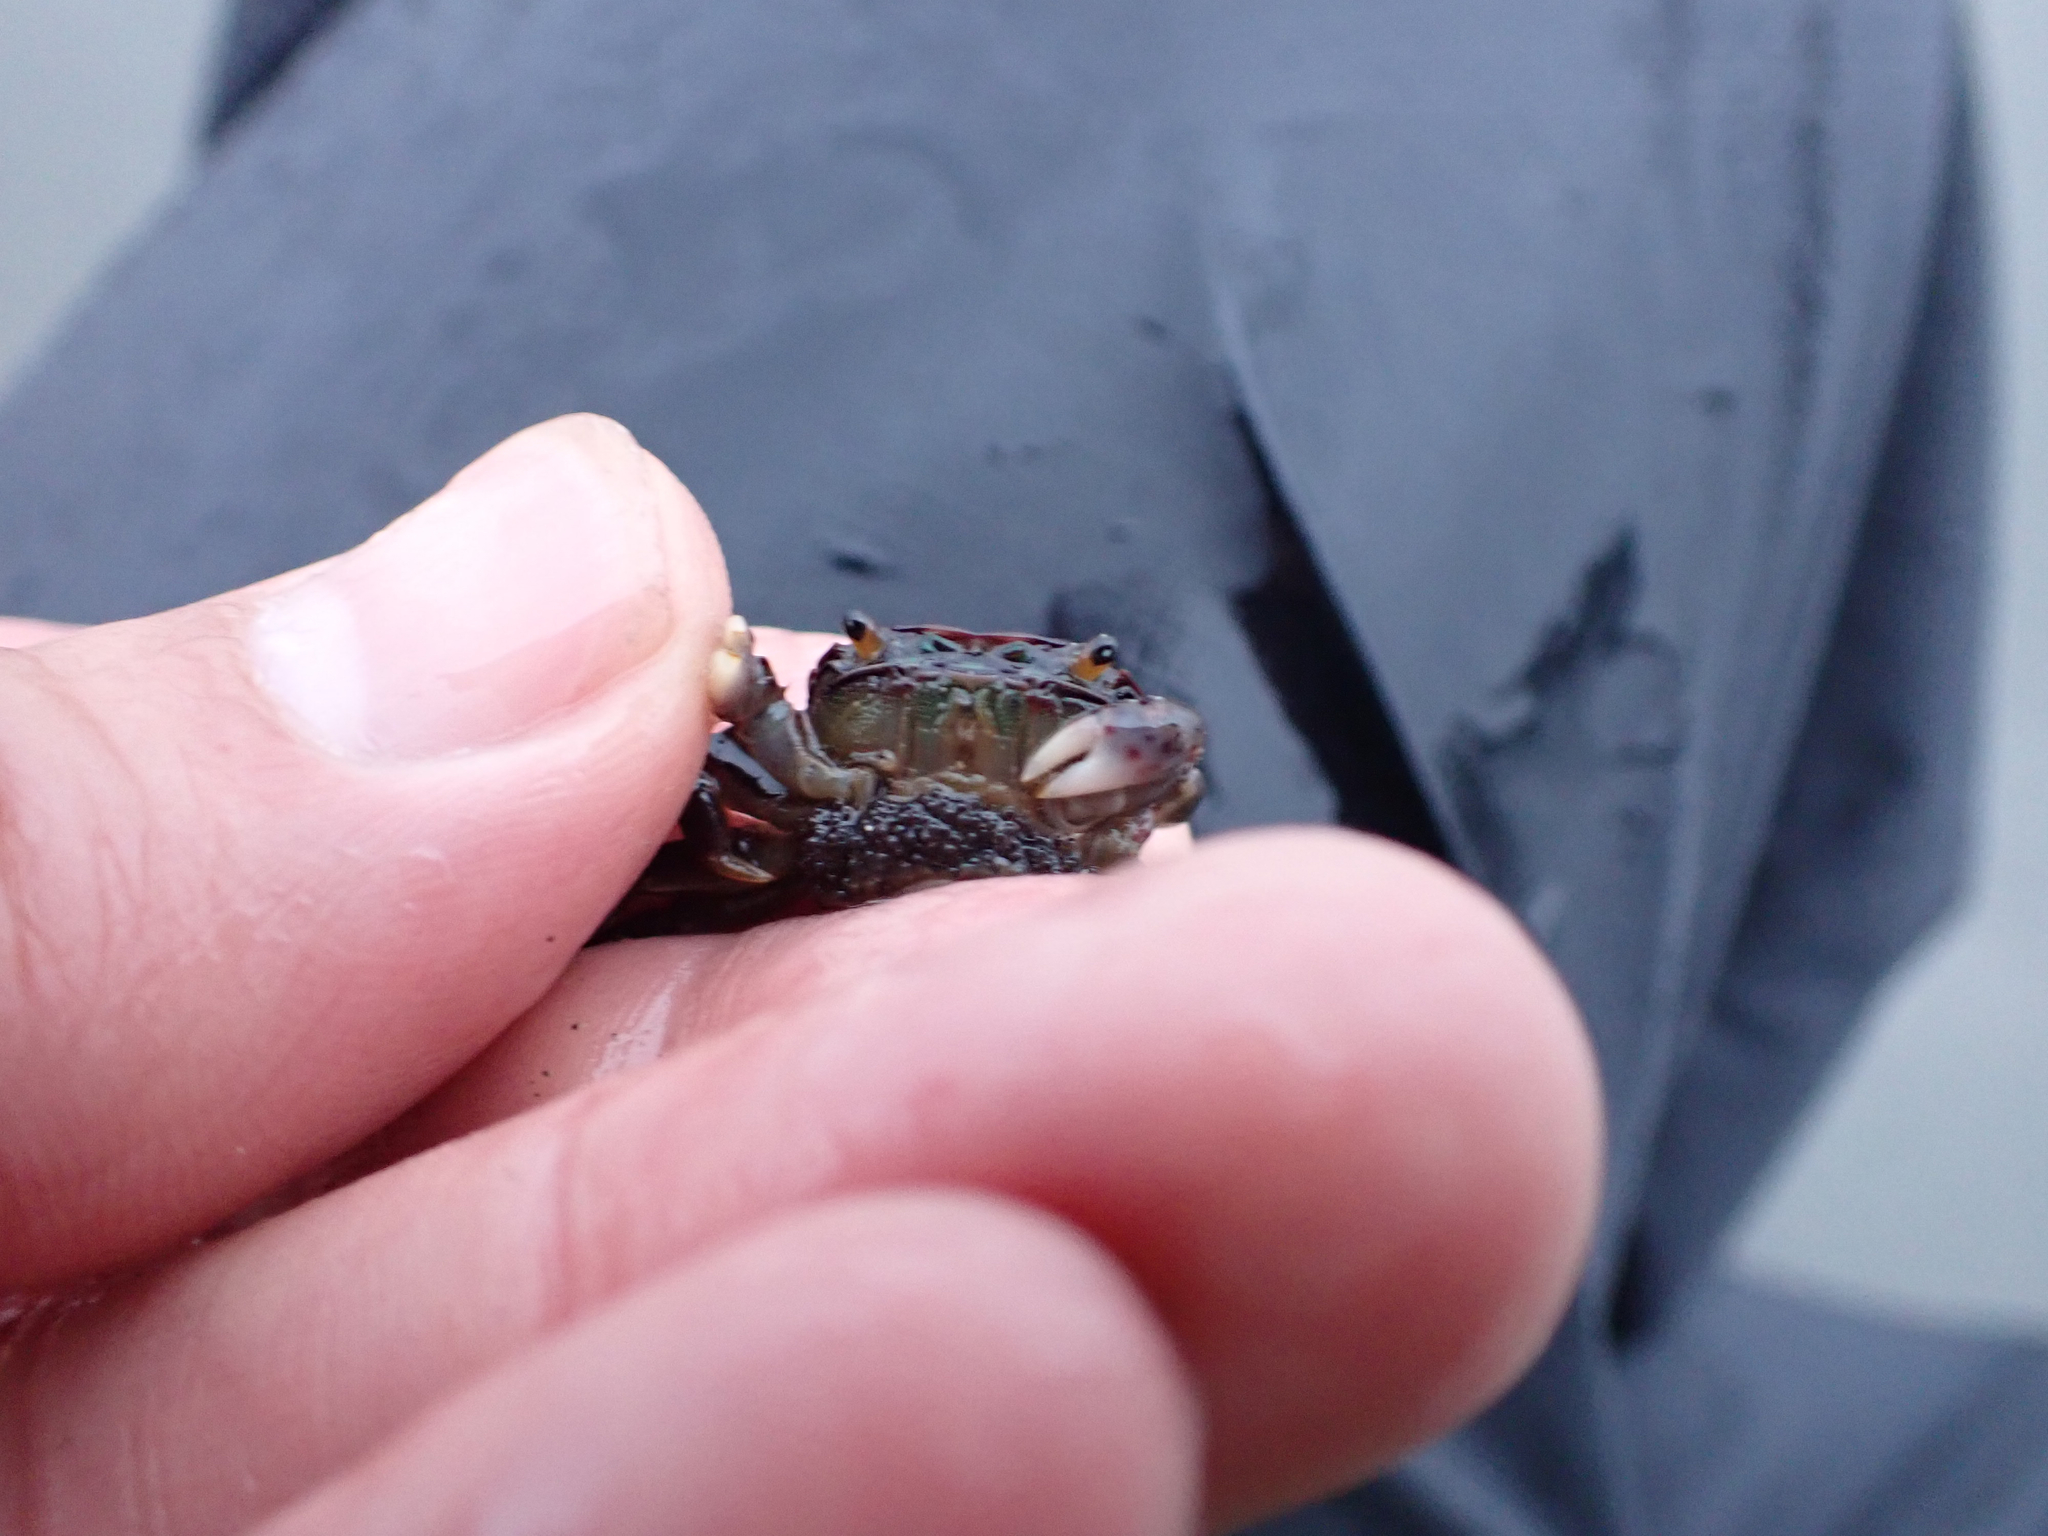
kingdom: Animalia
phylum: Arthropoda
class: Malacostraca
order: Decapoda
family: Varunidae
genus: Hemigrapsus
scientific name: Hemigrapsus nudus
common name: Purple shore crab
